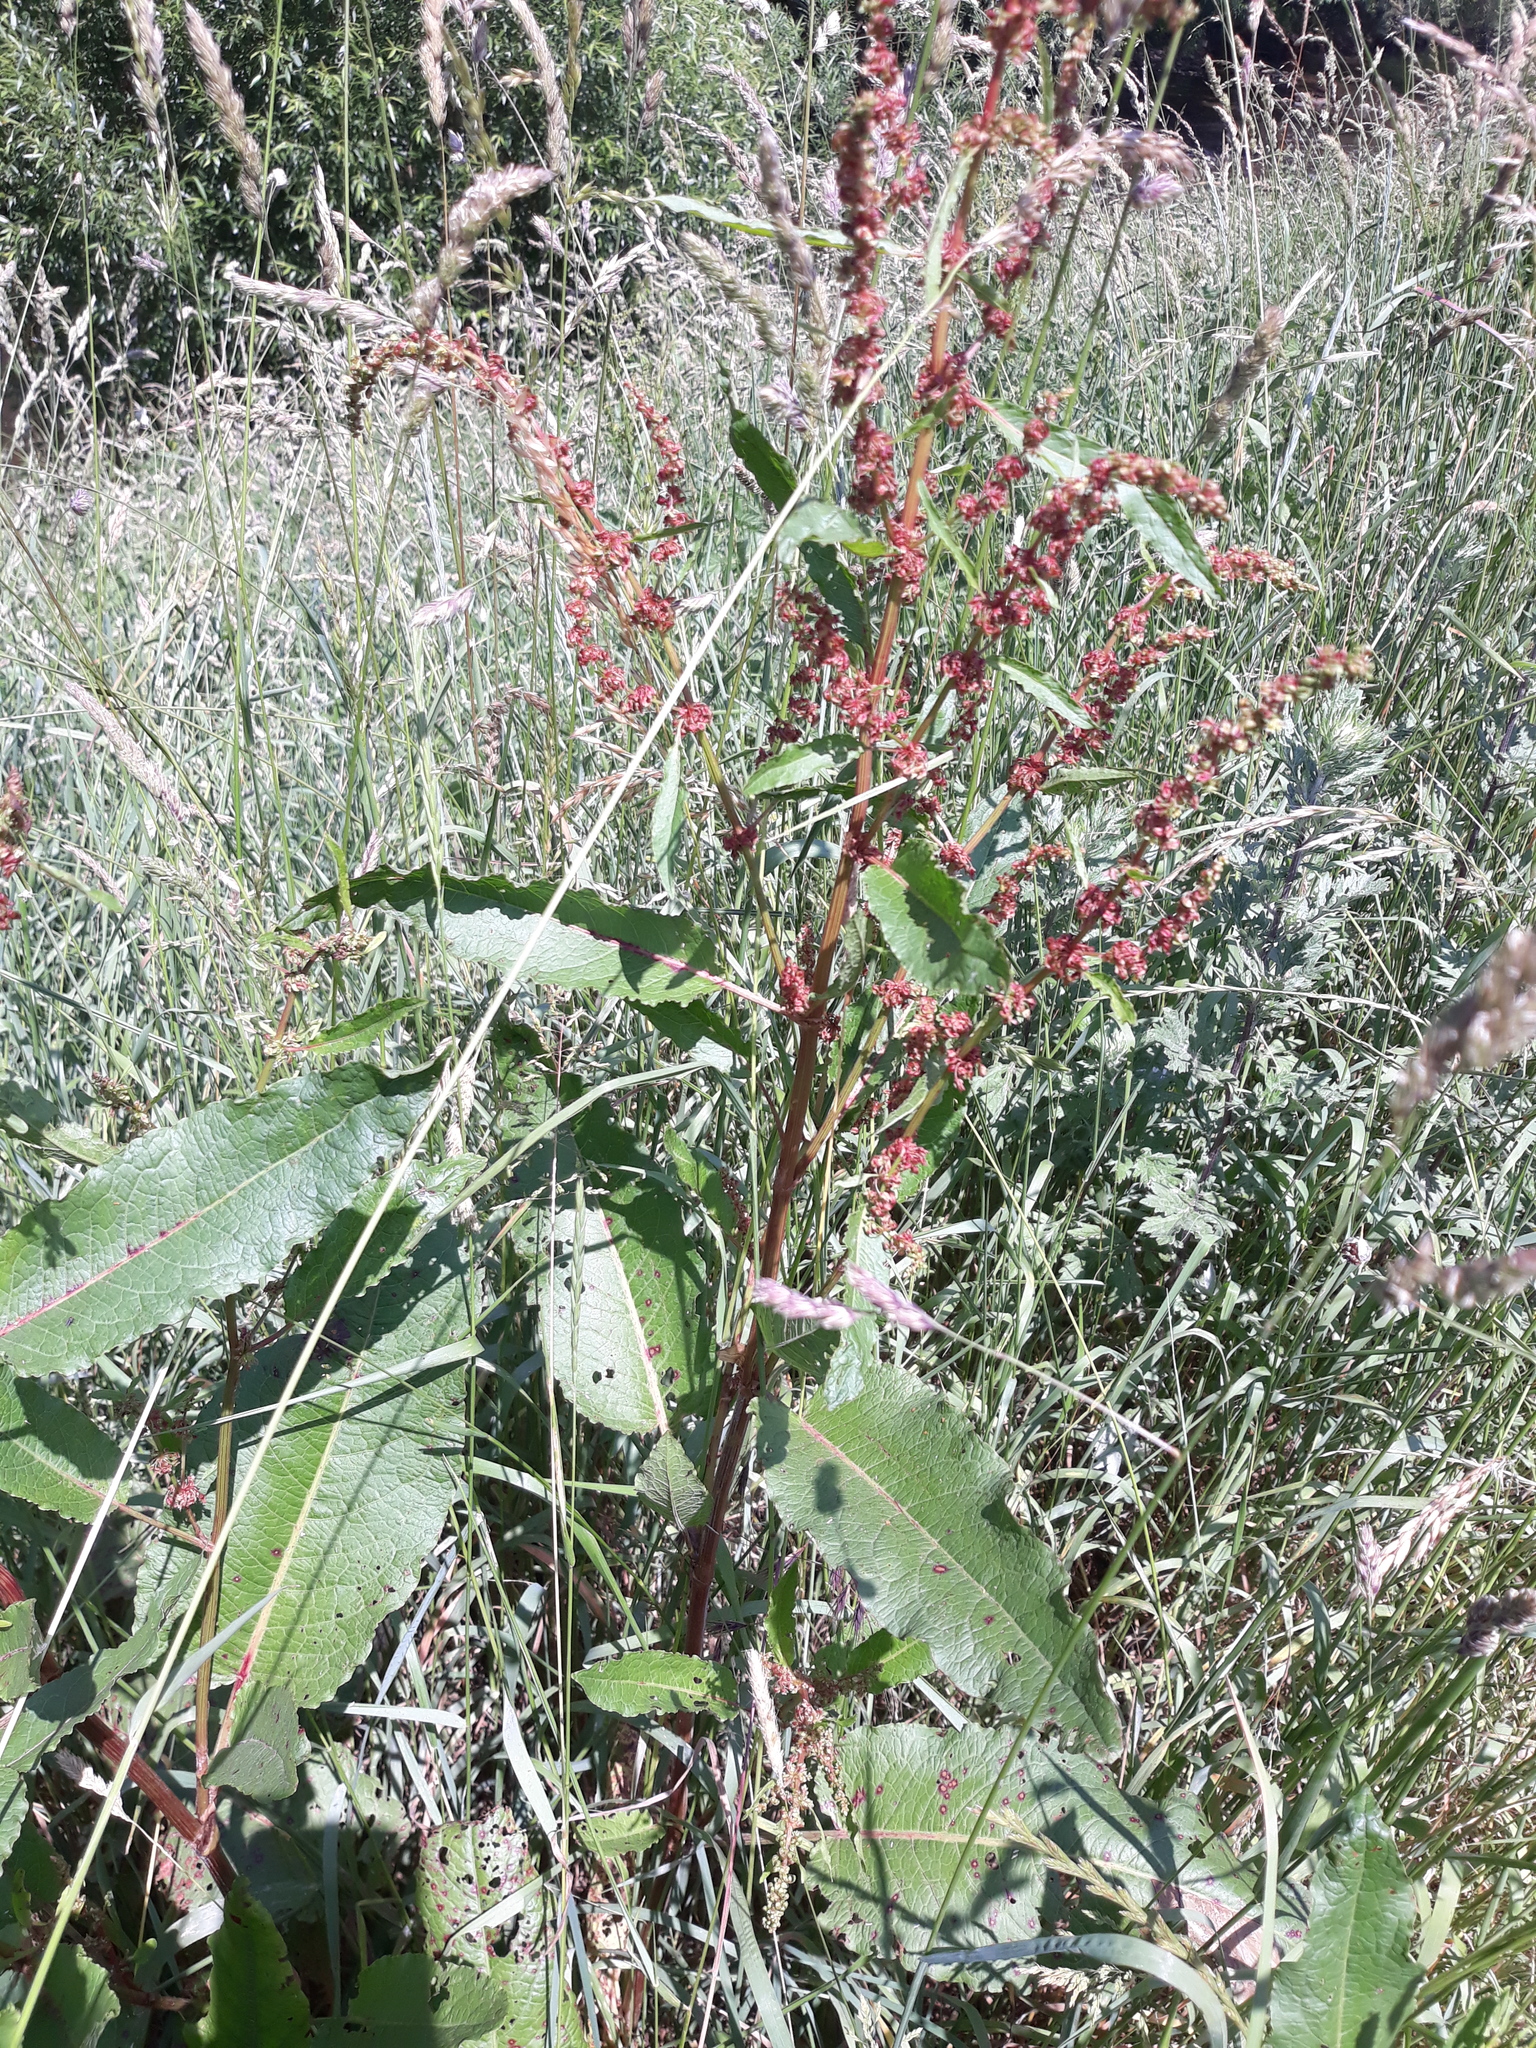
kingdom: Plantae
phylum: Tracheophyta
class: Magnoliopsida
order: Caryophyllales
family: Polygonaceae
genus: Rumex
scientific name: Rumex crispus
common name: Curled dock
